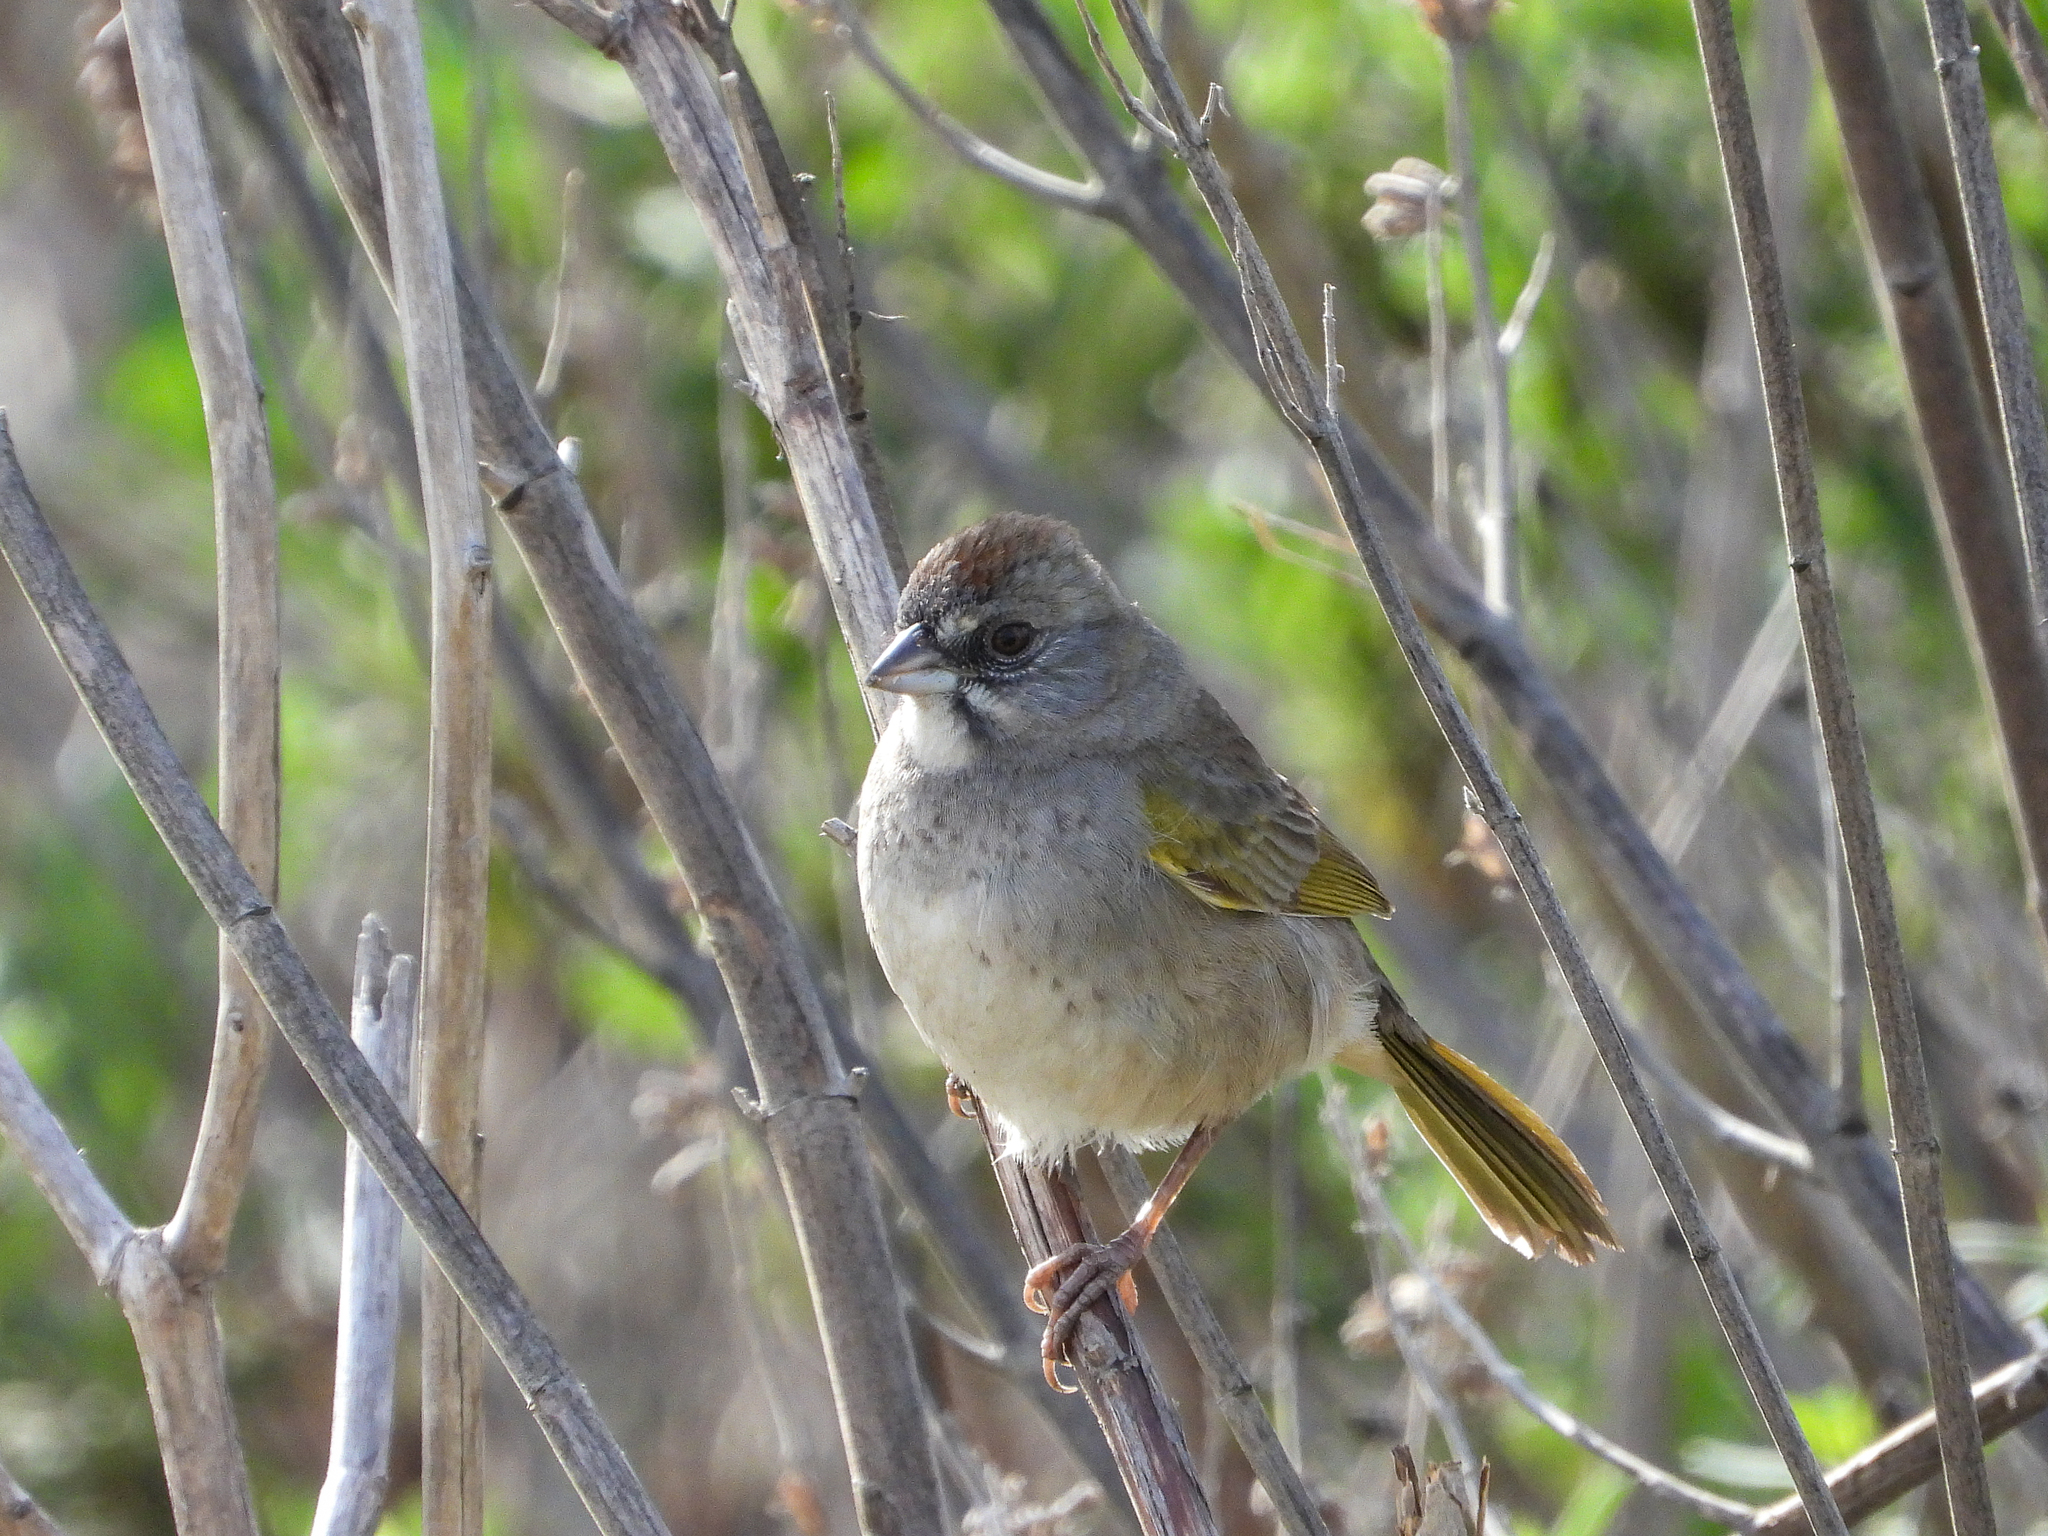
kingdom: Animalia
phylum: Chordata
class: Aves
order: Passeriformes
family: Passerellidae
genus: Pipilo
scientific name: Pipilo chlorurus
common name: Green-tailed towhee
